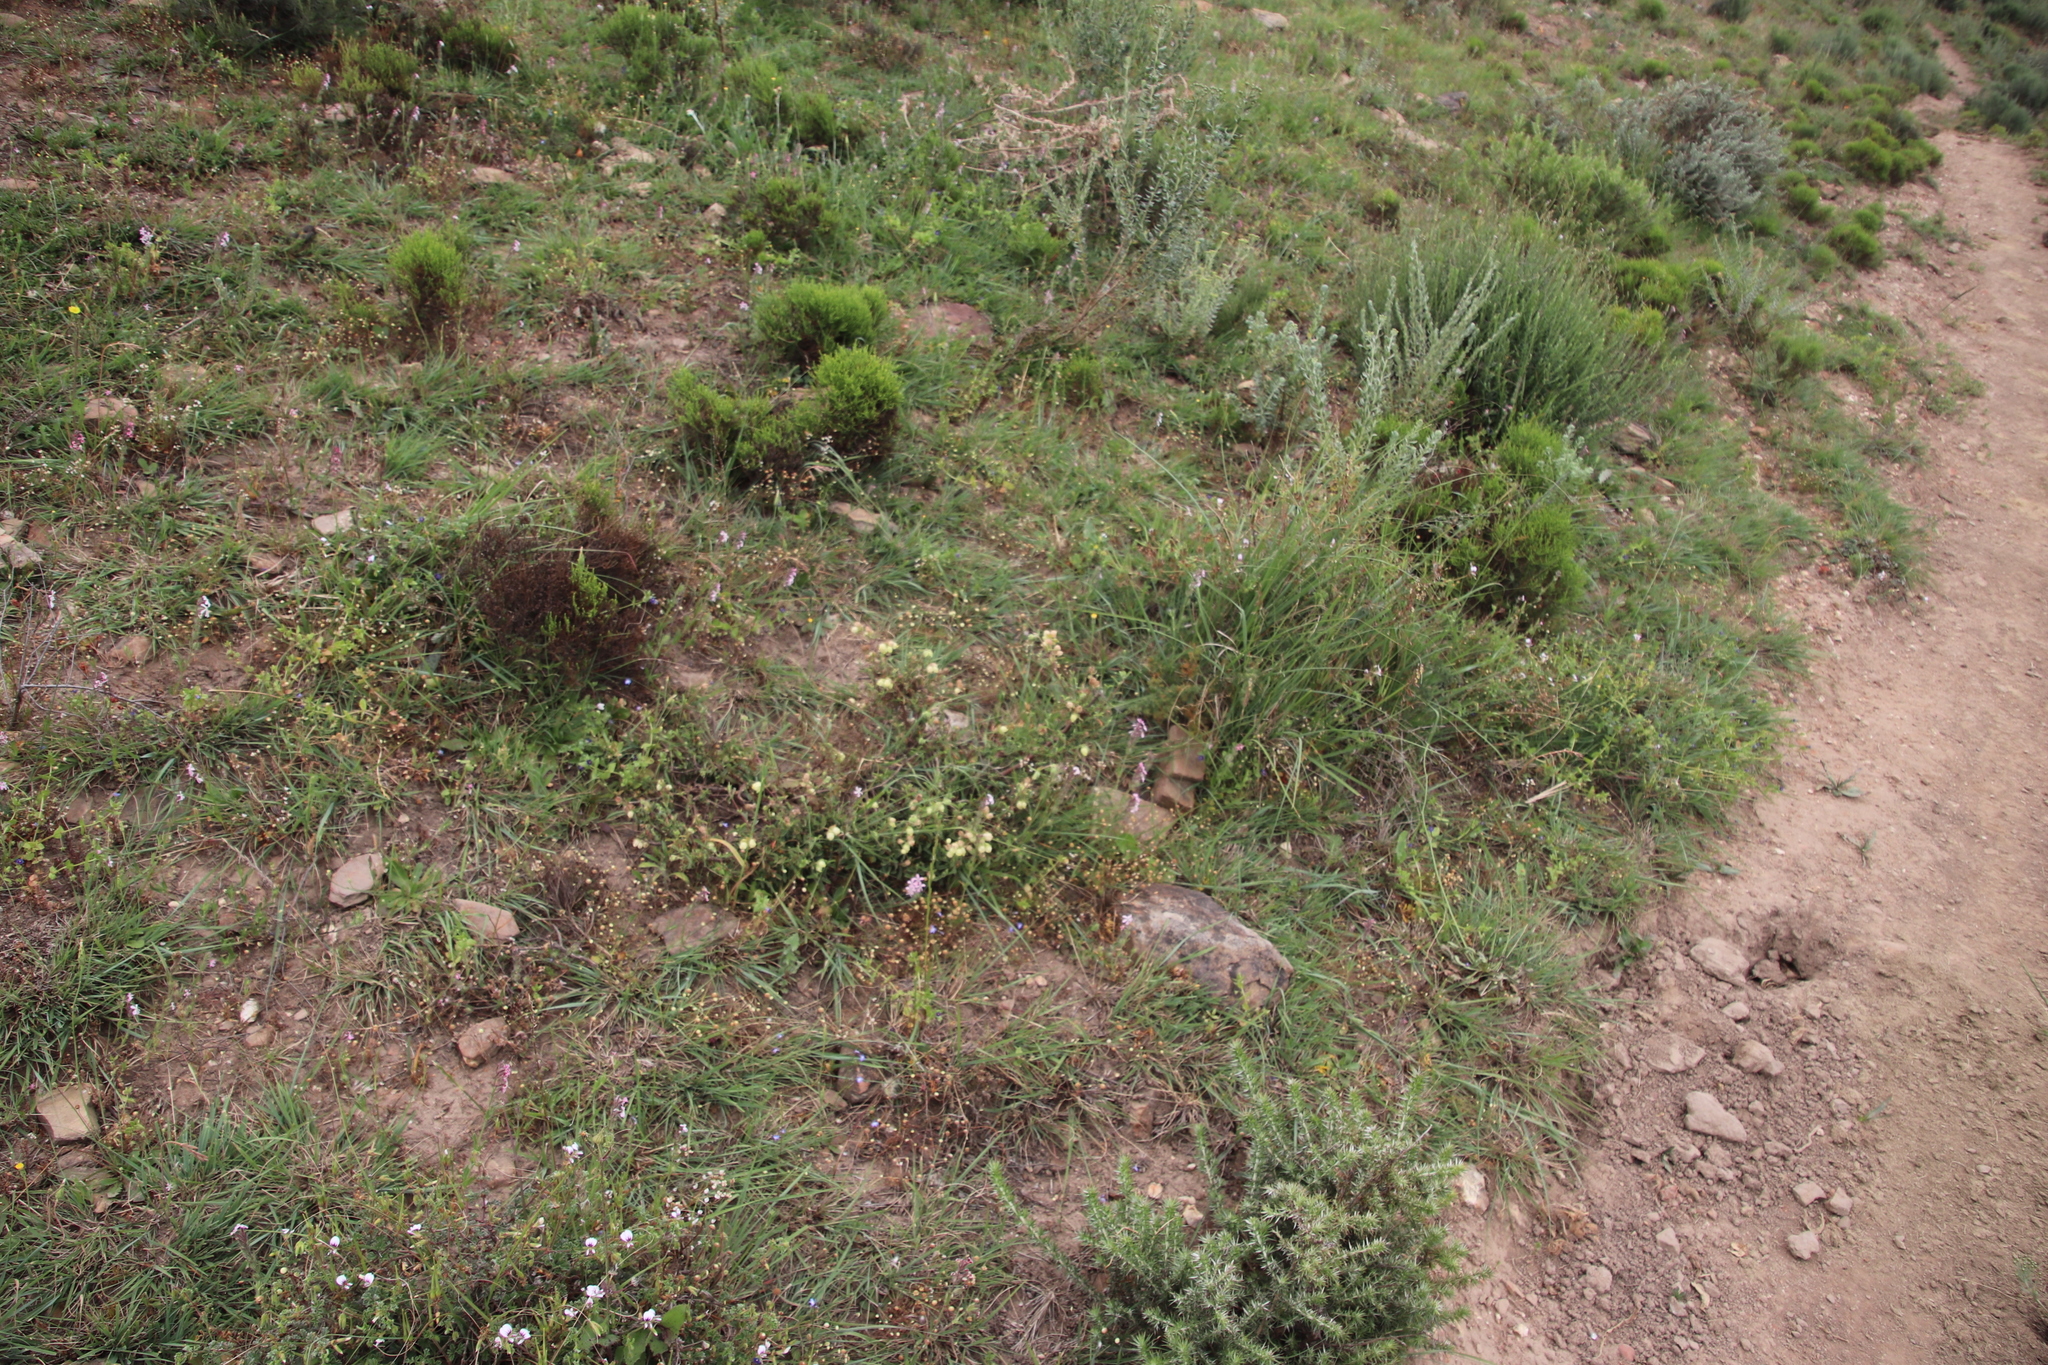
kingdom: Plantae
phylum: Tracheophyta
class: Magnoliopsida
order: Malvales
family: Malvaceae
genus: Hermannia
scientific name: Hermannia hyssopifolia
